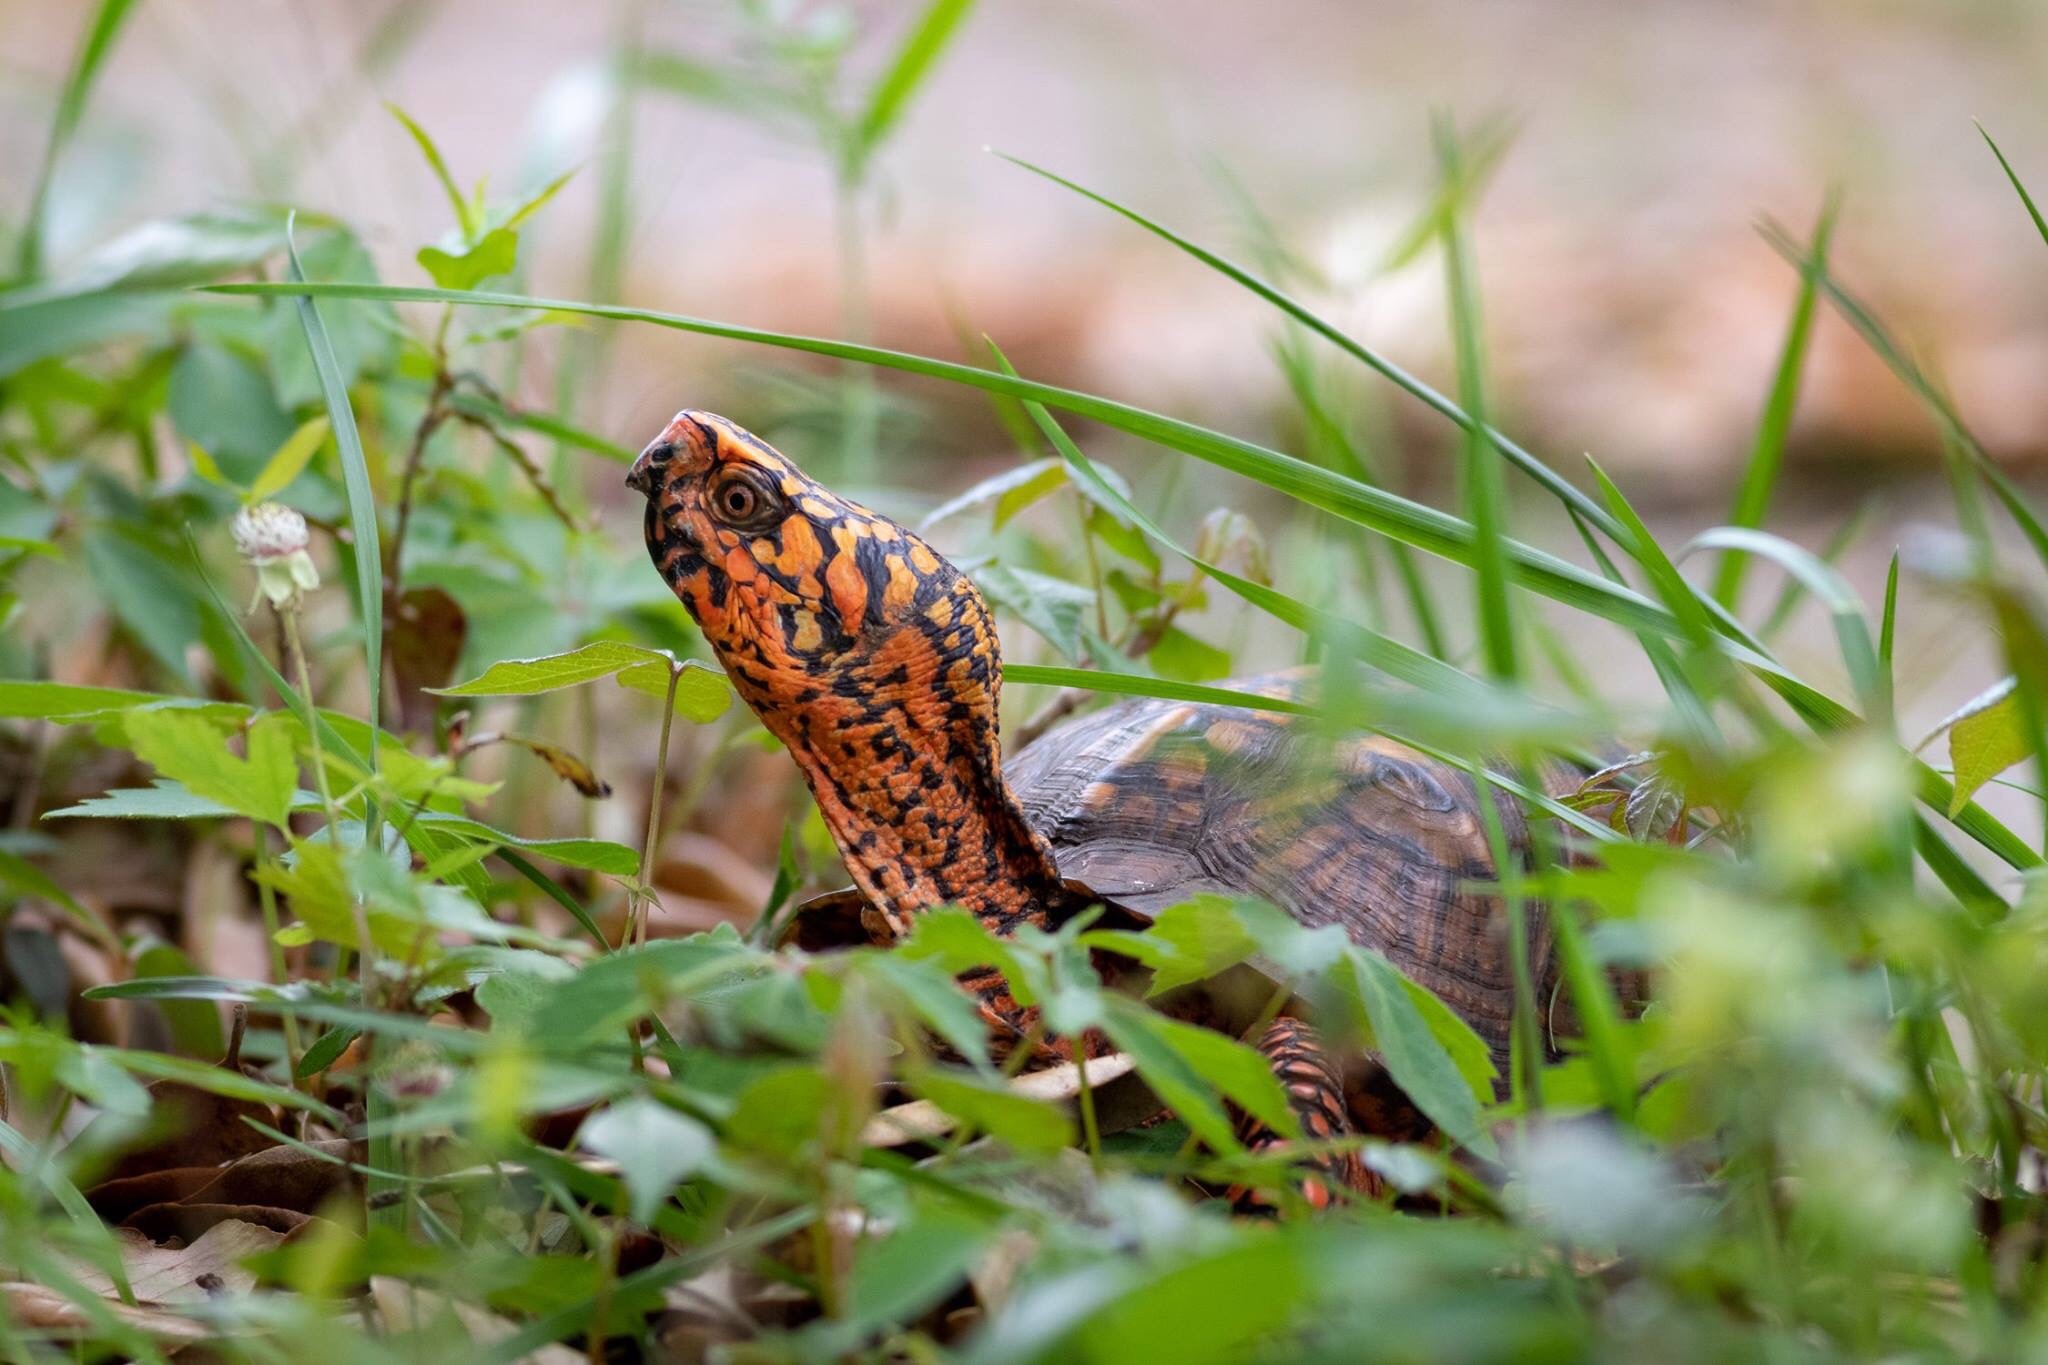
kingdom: Animalia
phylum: Chordata
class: Testudines
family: Emydidae
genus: Terrapene
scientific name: Terrapene carolina
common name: Common box turtle
